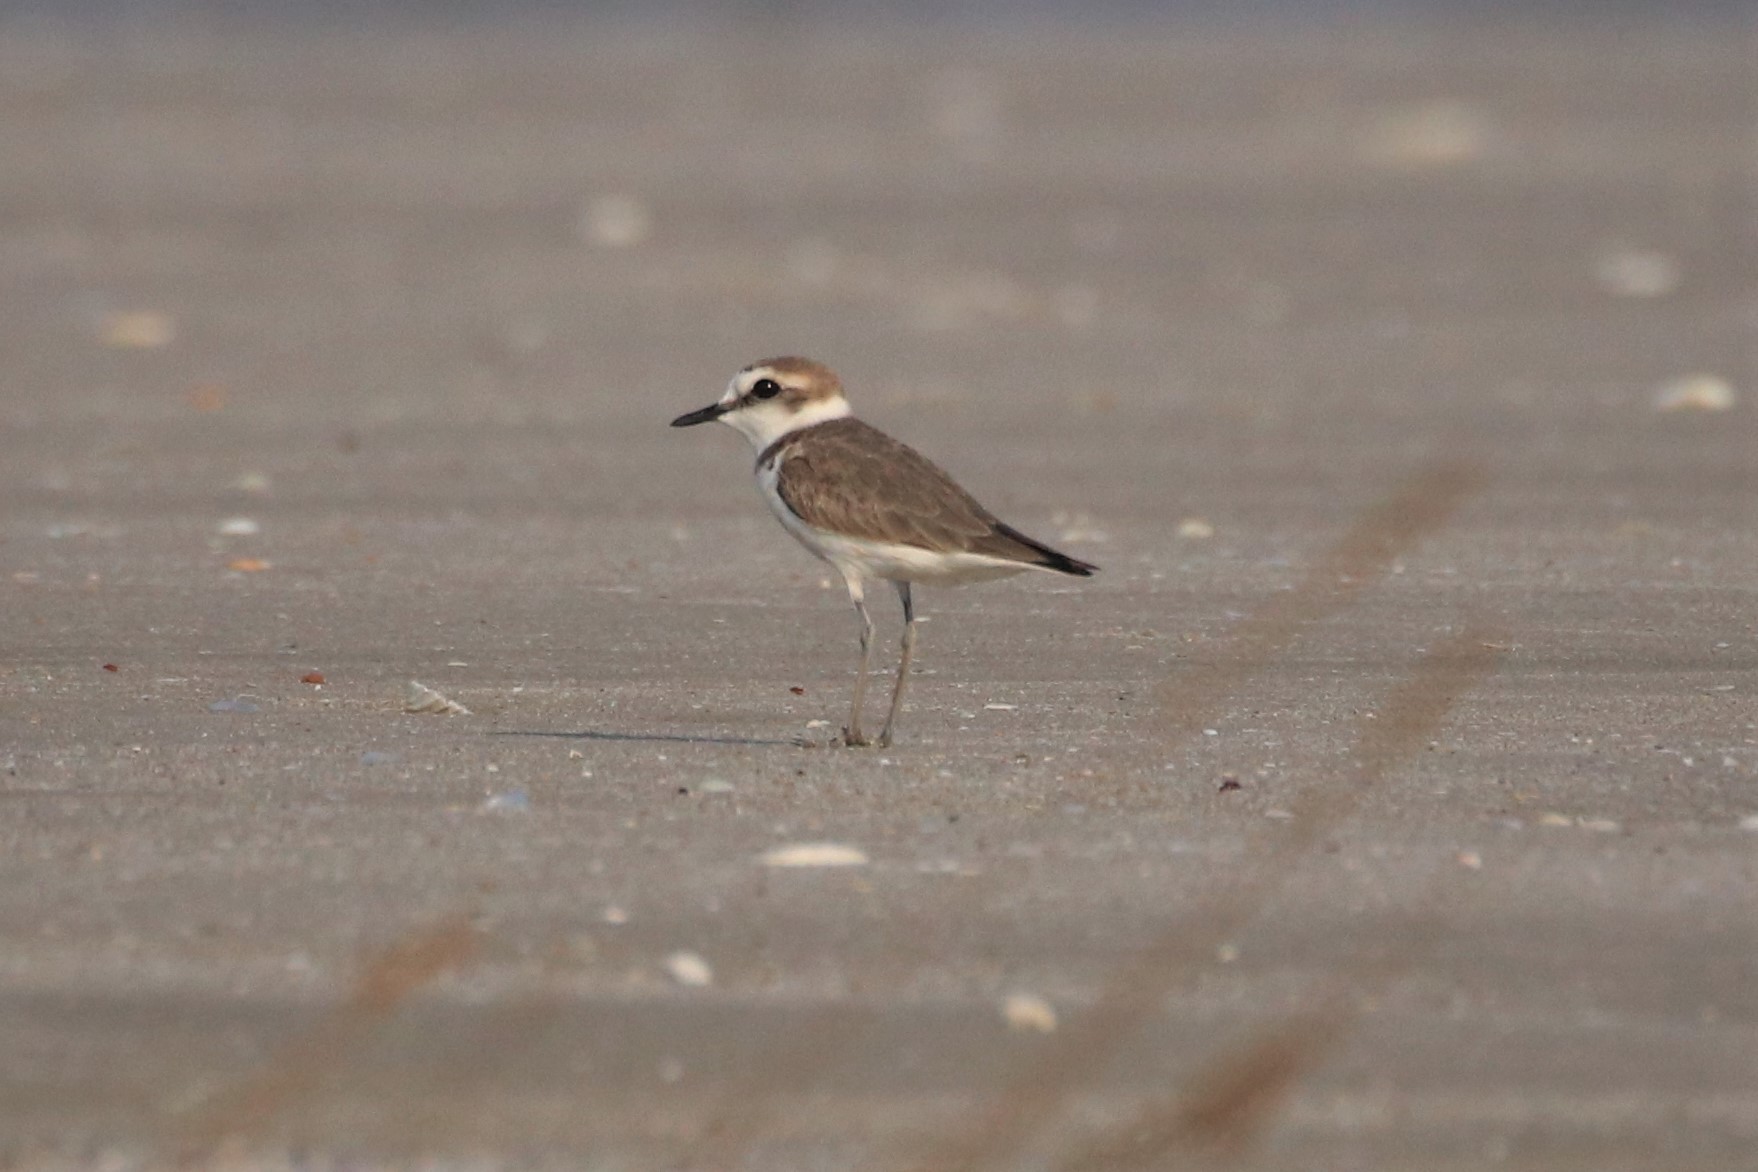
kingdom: Animalia
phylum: Chordata
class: Aves
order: Charadriiformes
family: Charadriidae
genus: Charadrius
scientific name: Charadrius alexandrinus
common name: Kentish plover
